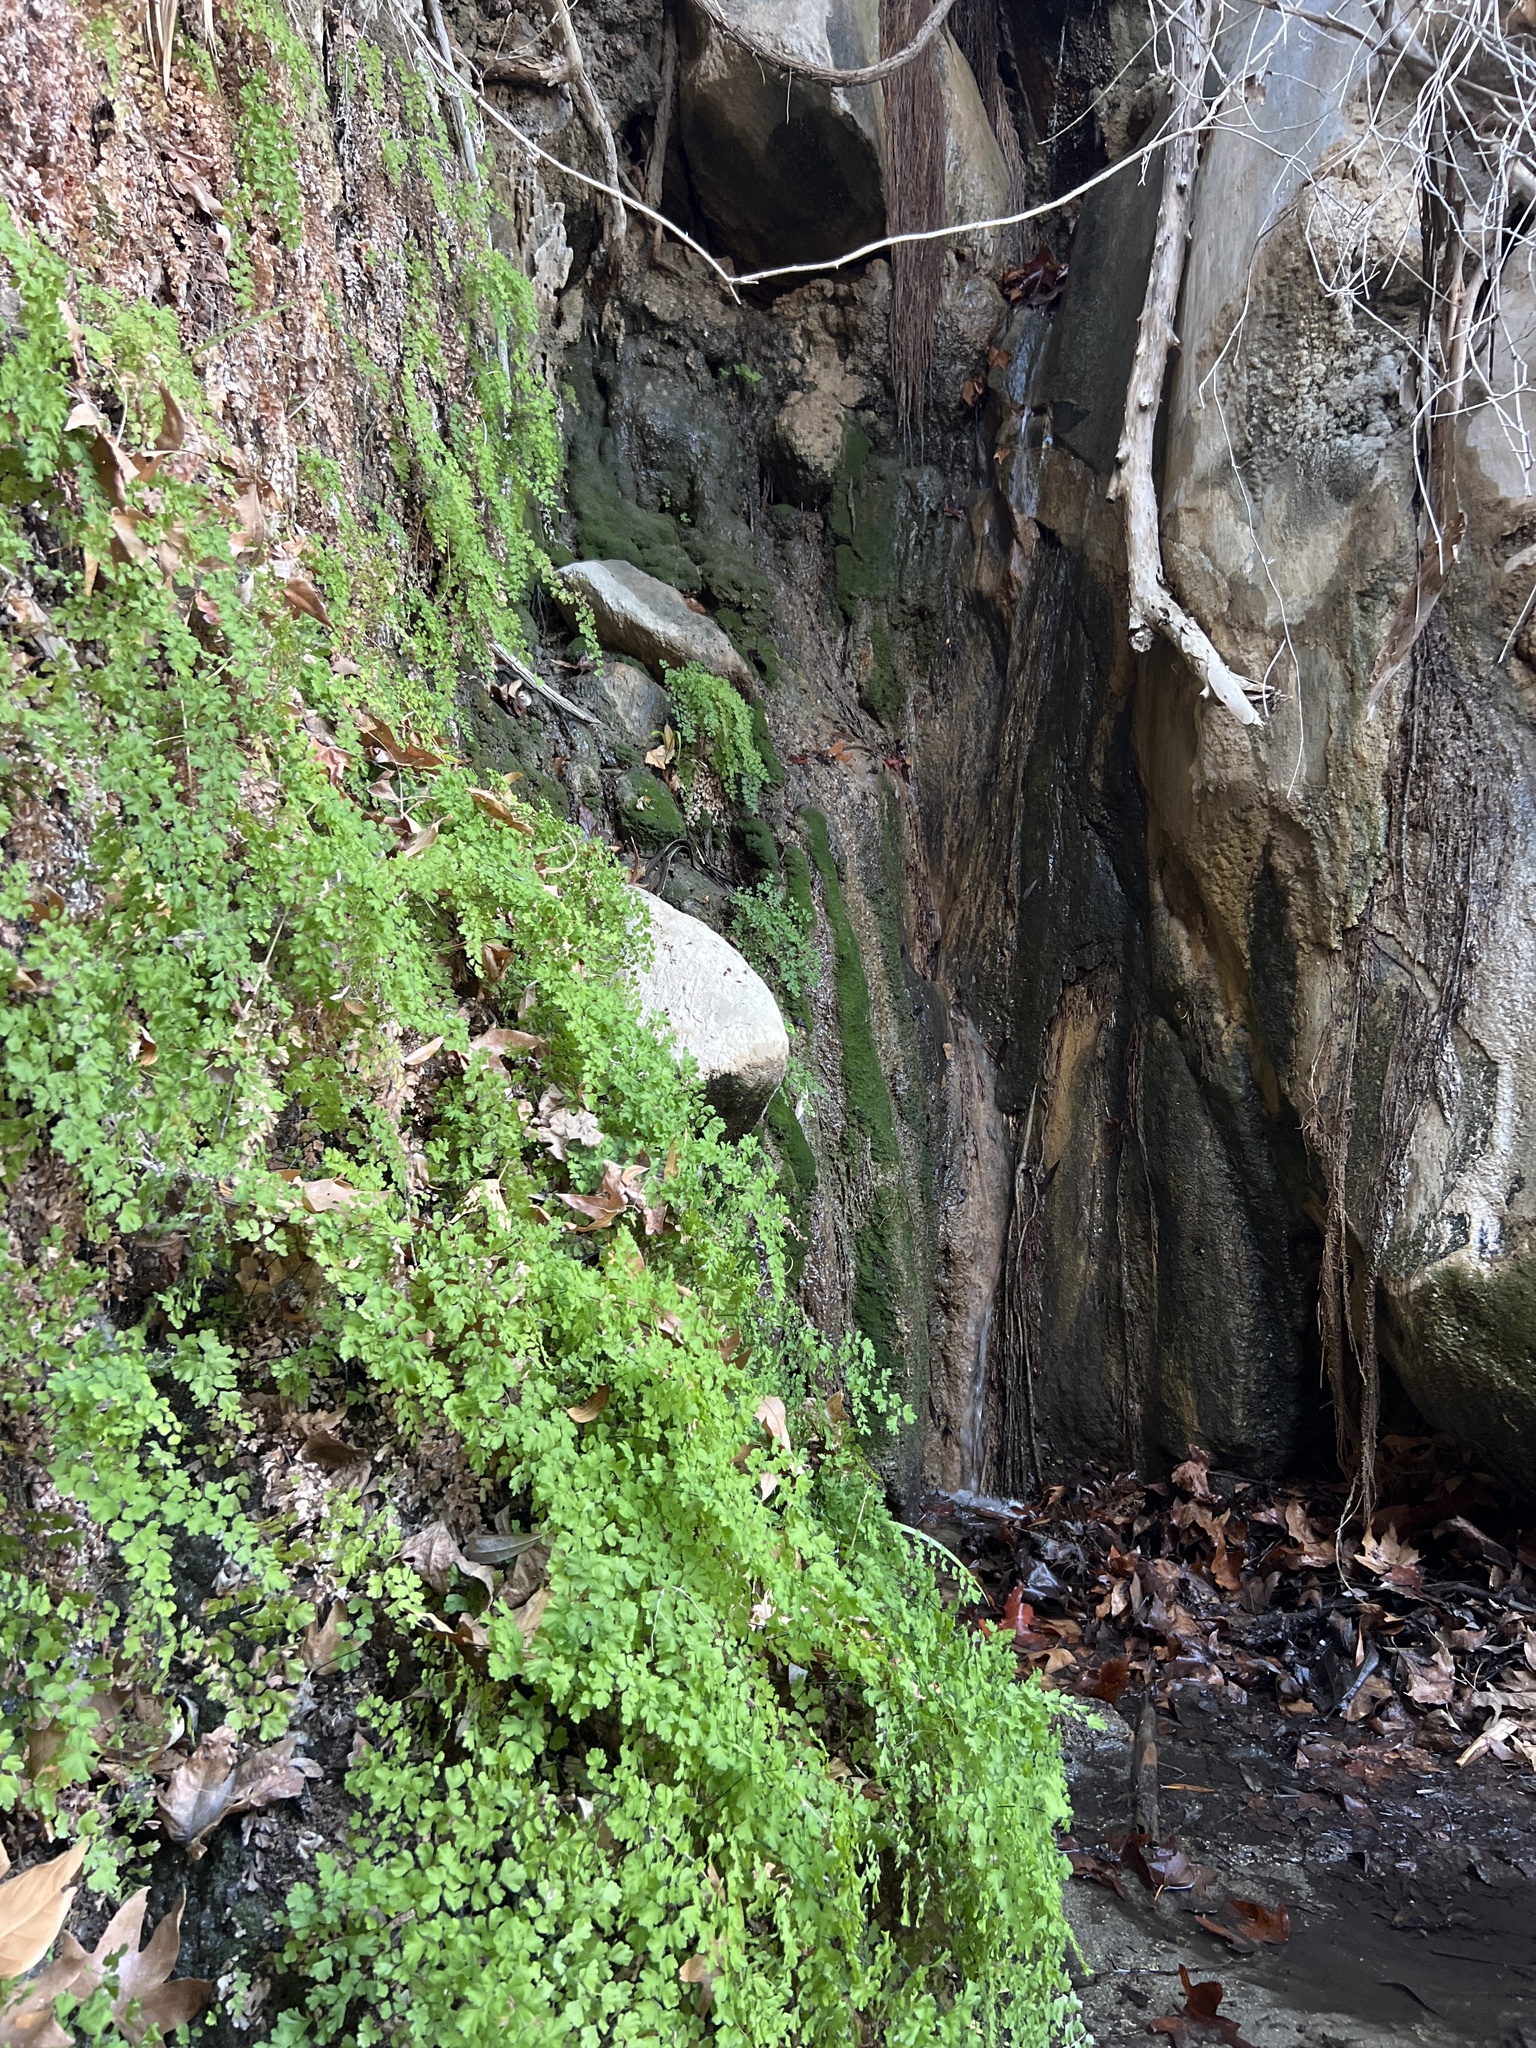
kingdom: Plantae
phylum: Tracheophyta
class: Polypodiopsida
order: Polypodiales
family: Pteridaceae
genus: Adiantum
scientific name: Adiantum capillus-veneris
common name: Maidenhair fern
